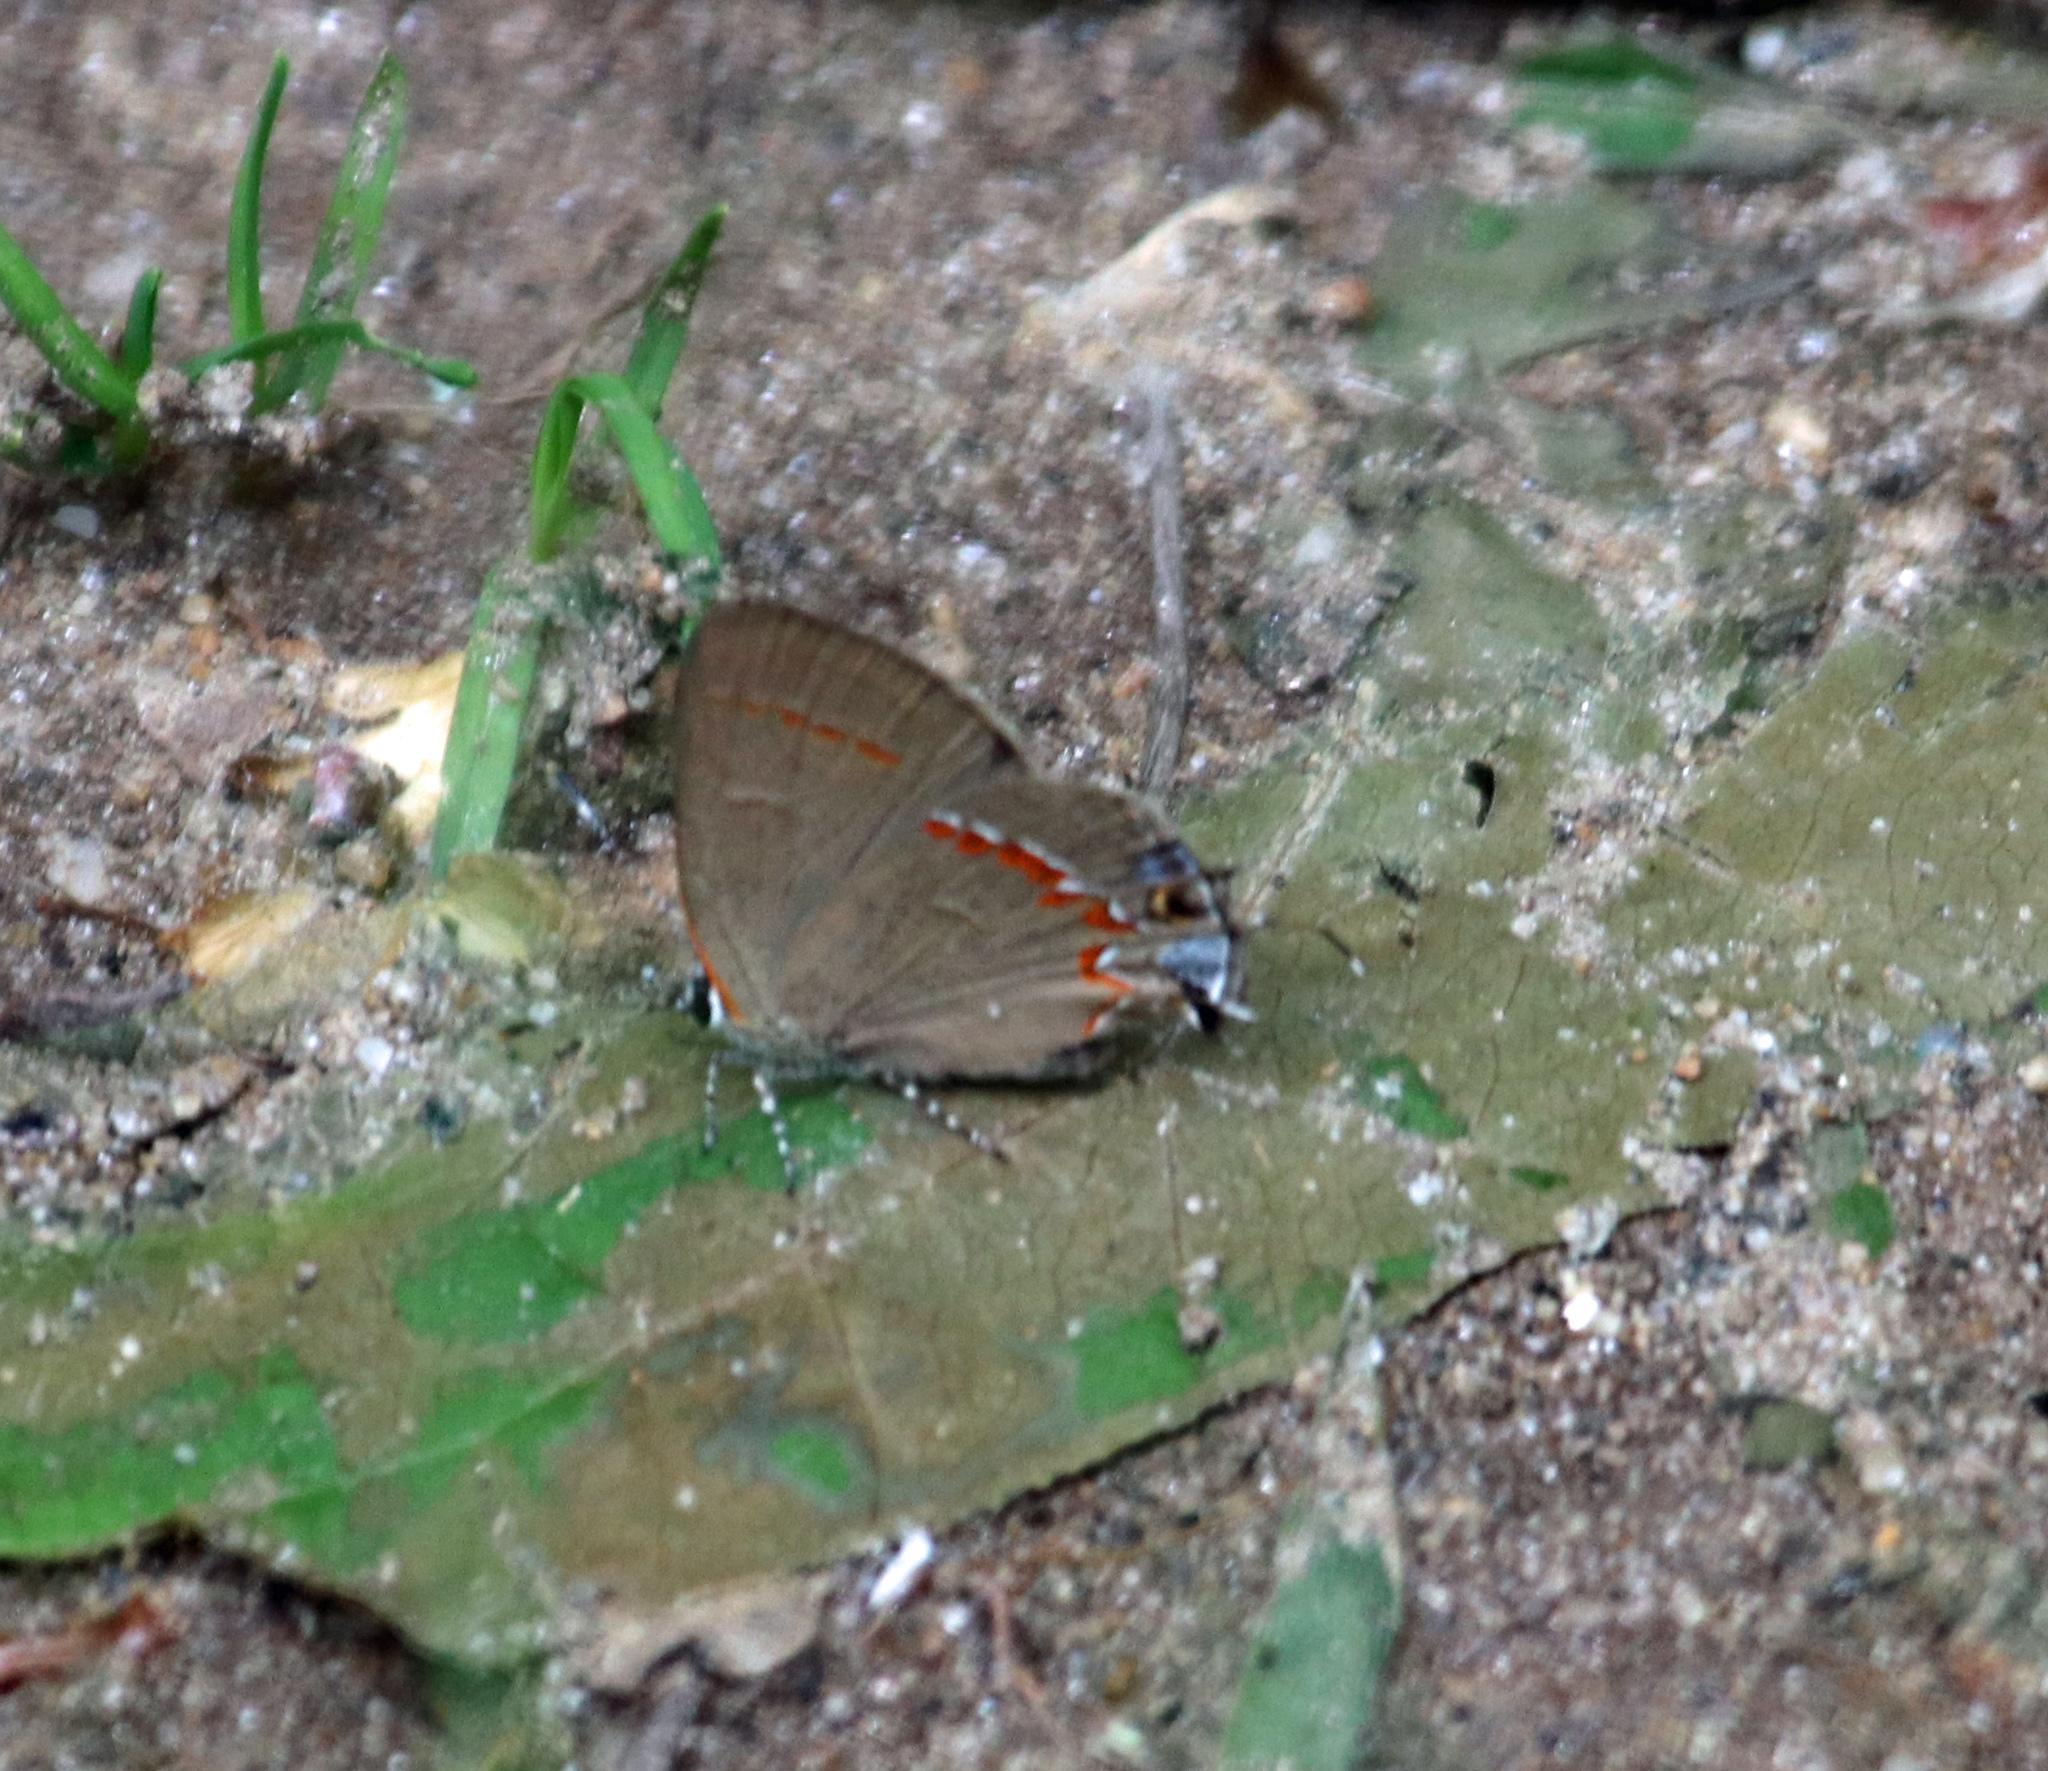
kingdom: Animalia
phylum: Arthropoda
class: Insecta
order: Lepidoptera
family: Lycaenidae
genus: Calycopis
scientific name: Calycopis cecrops
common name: Red-banded hairstreak
